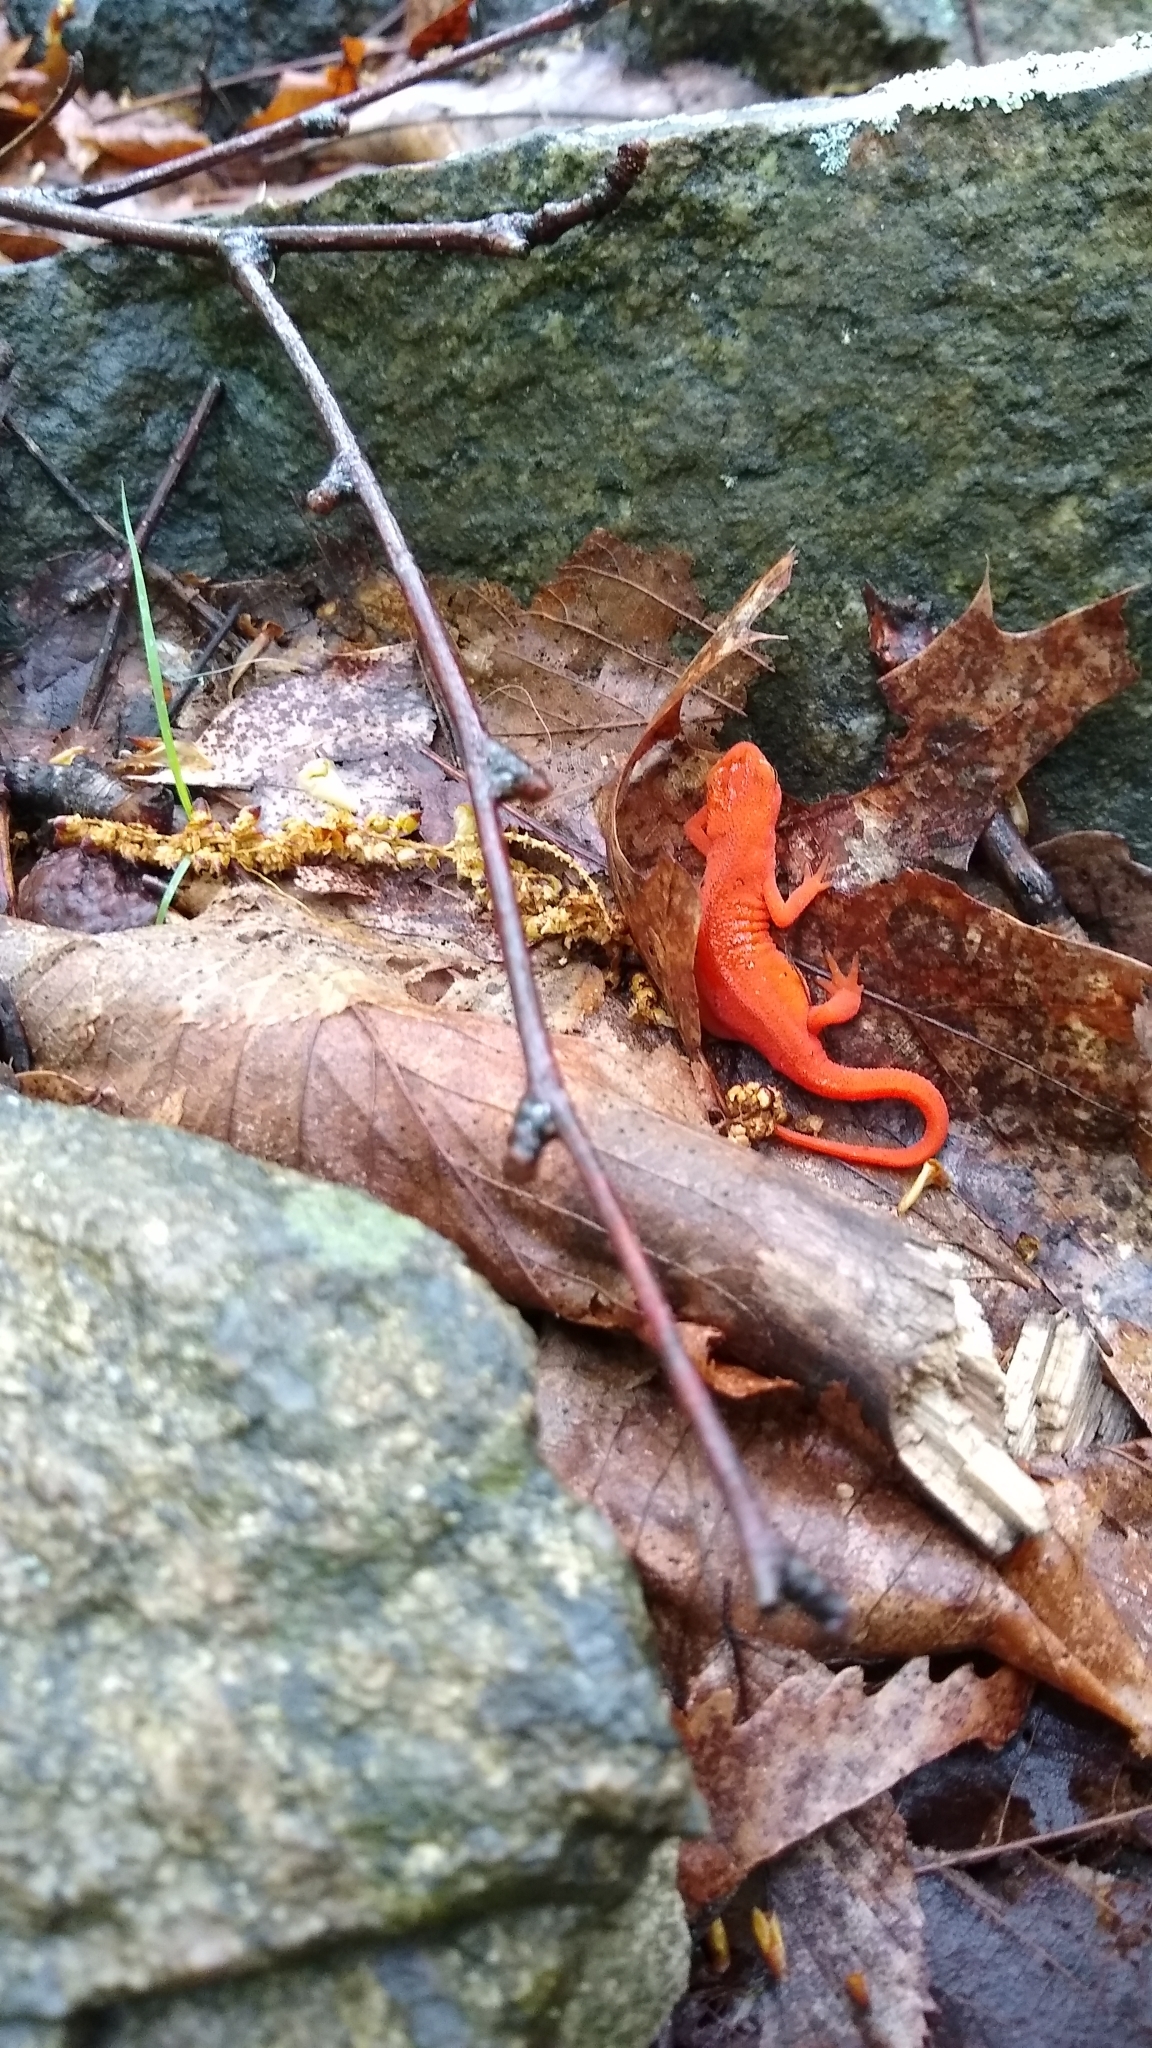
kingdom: Animalia
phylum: Chordata
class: Amphibia
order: Caudata
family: Salamandridae
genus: Notophthalmus
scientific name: Notophthalmus viridescens
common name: Eastern newt
